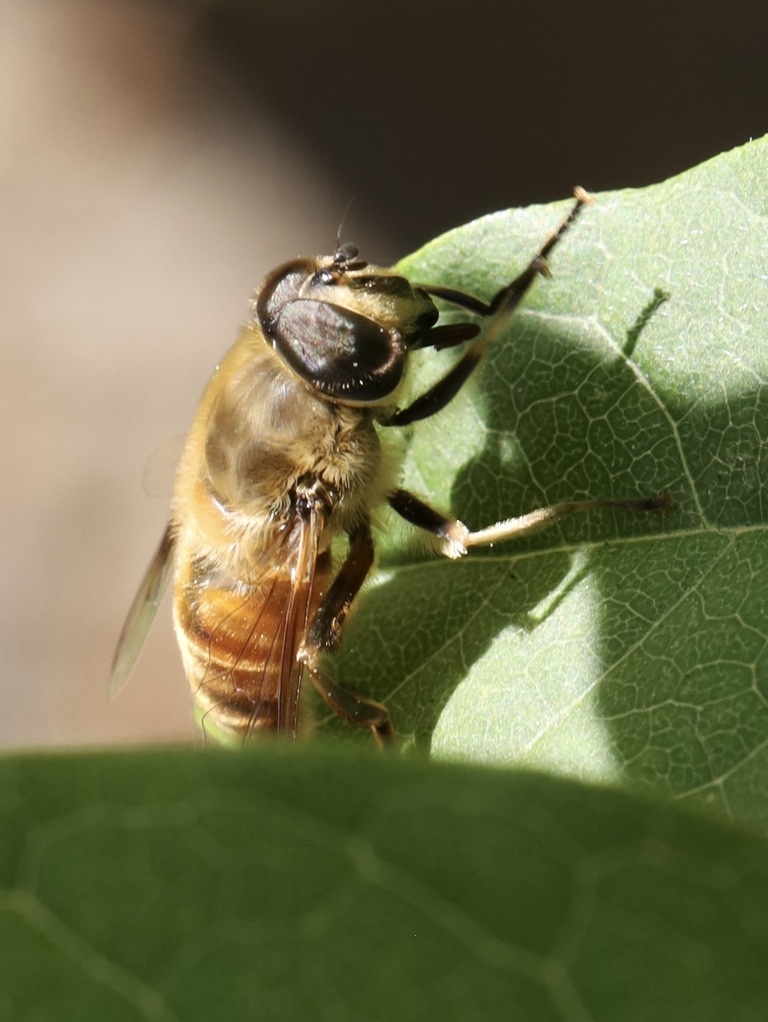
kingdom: Animalia
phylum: Arthropoda
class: Insecta
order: Diptera
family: Syrphidae
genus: Eristalis
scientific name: Eristalis tenax
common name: Drone fly
